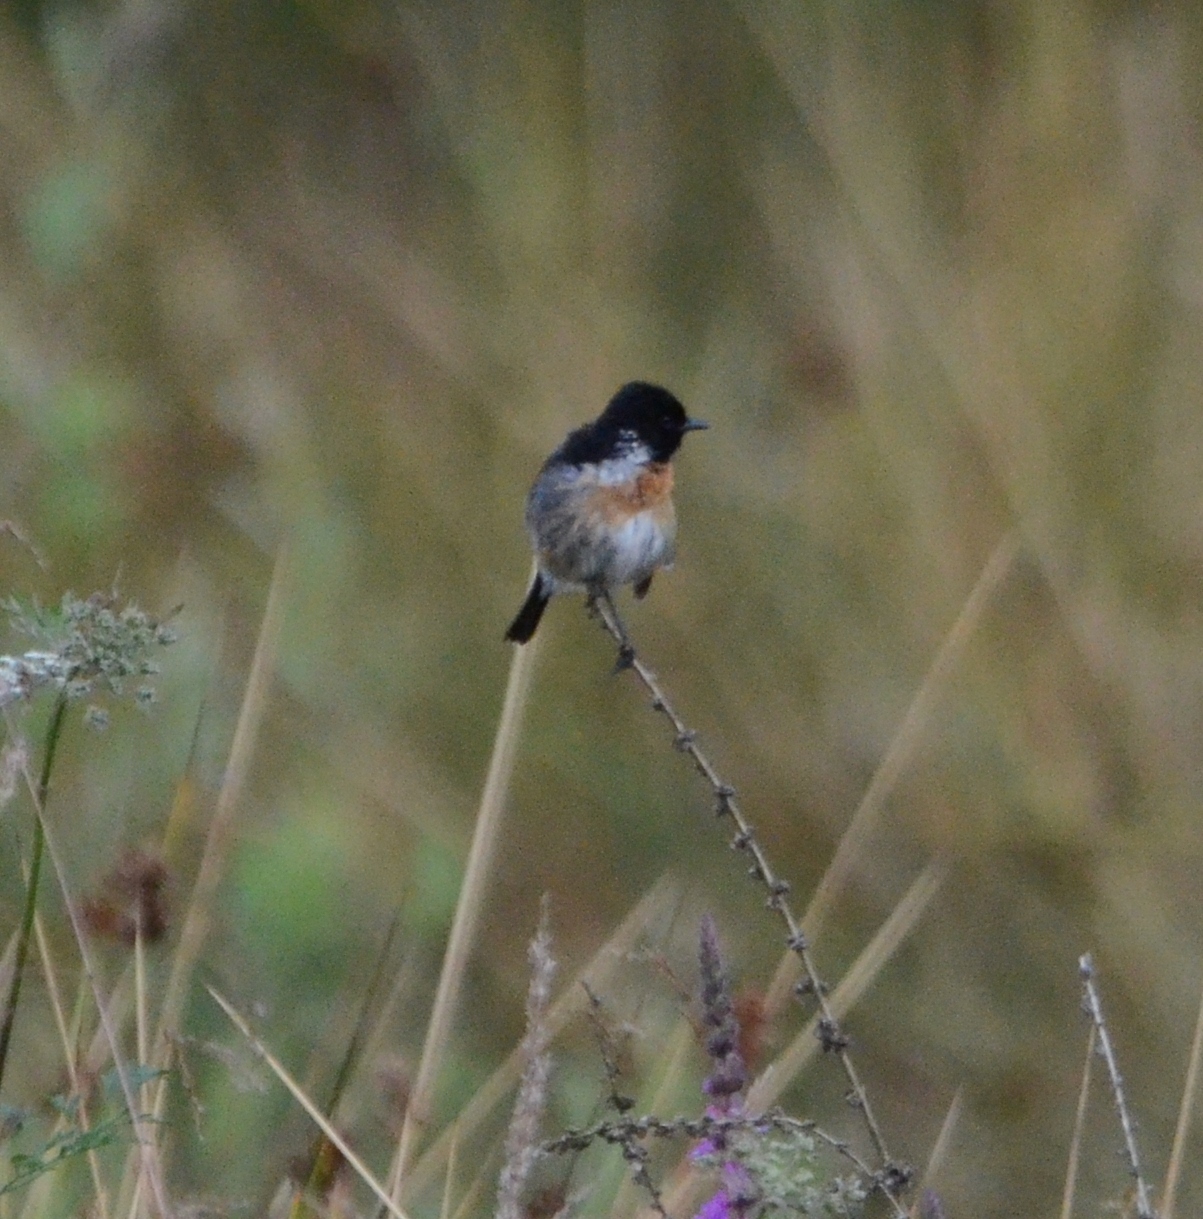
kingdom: Animalia
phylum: Chordata
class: Aves
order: Passeriformes
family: Muscicapidae
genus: Saxicola
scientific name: Saxicola rubicola
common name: European stonechat
